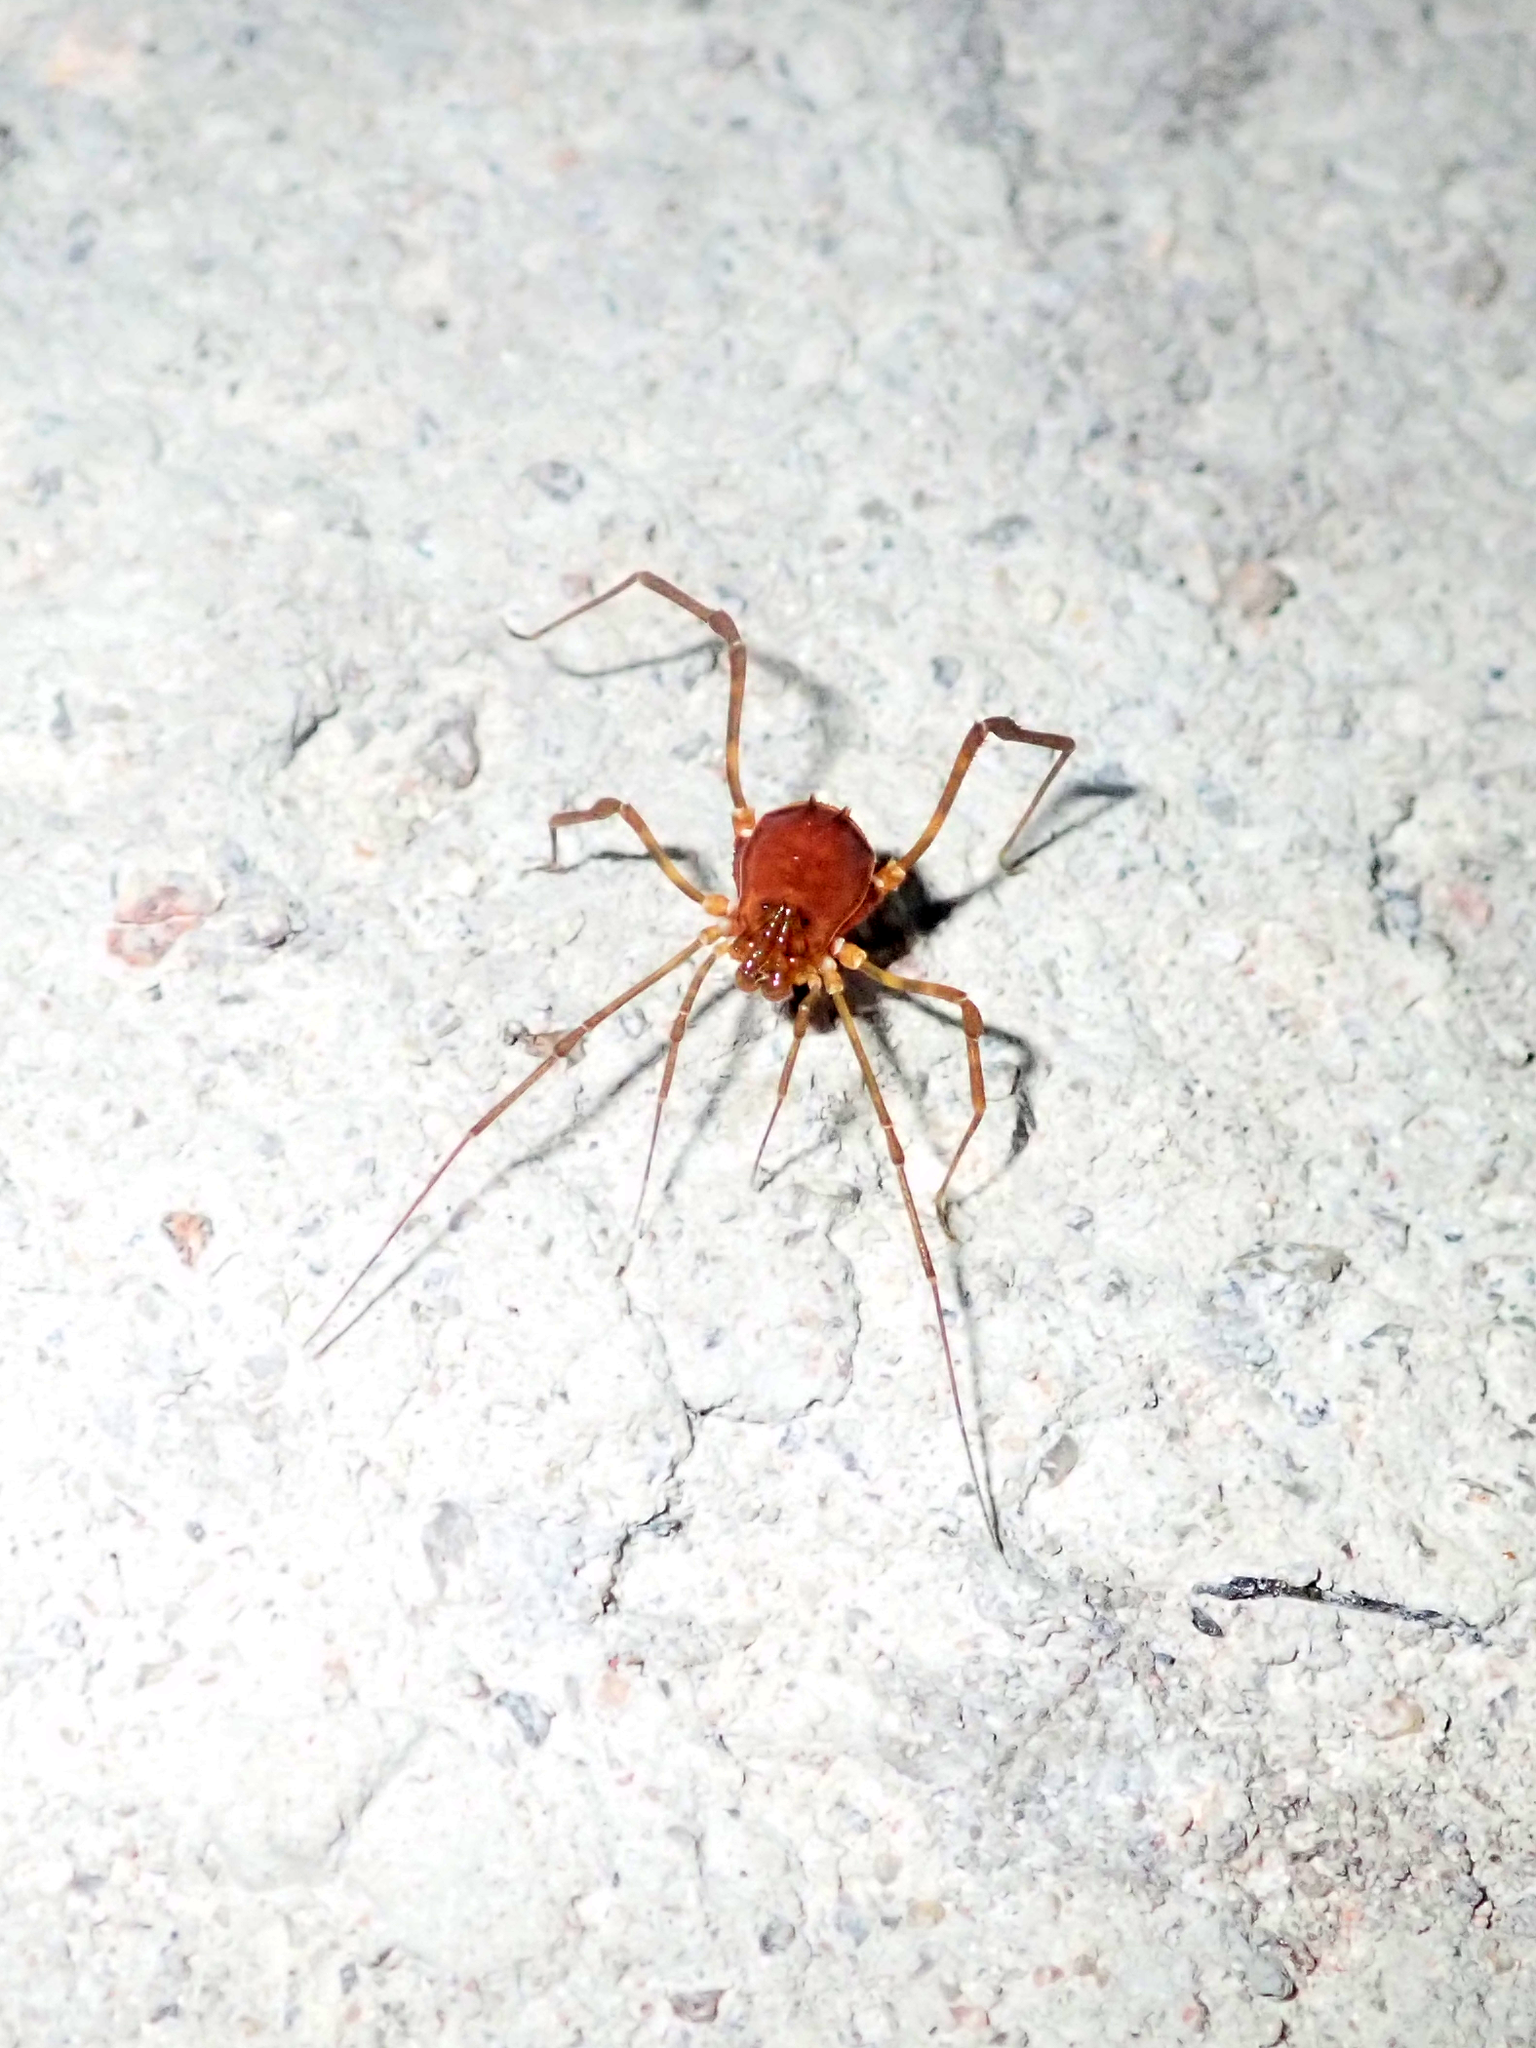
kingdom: Animalia
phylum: Arthropoda
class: Arachnida
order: Opiliones
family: Stygnidae
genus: Stygnus
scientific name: Stygnus polyacanthus
